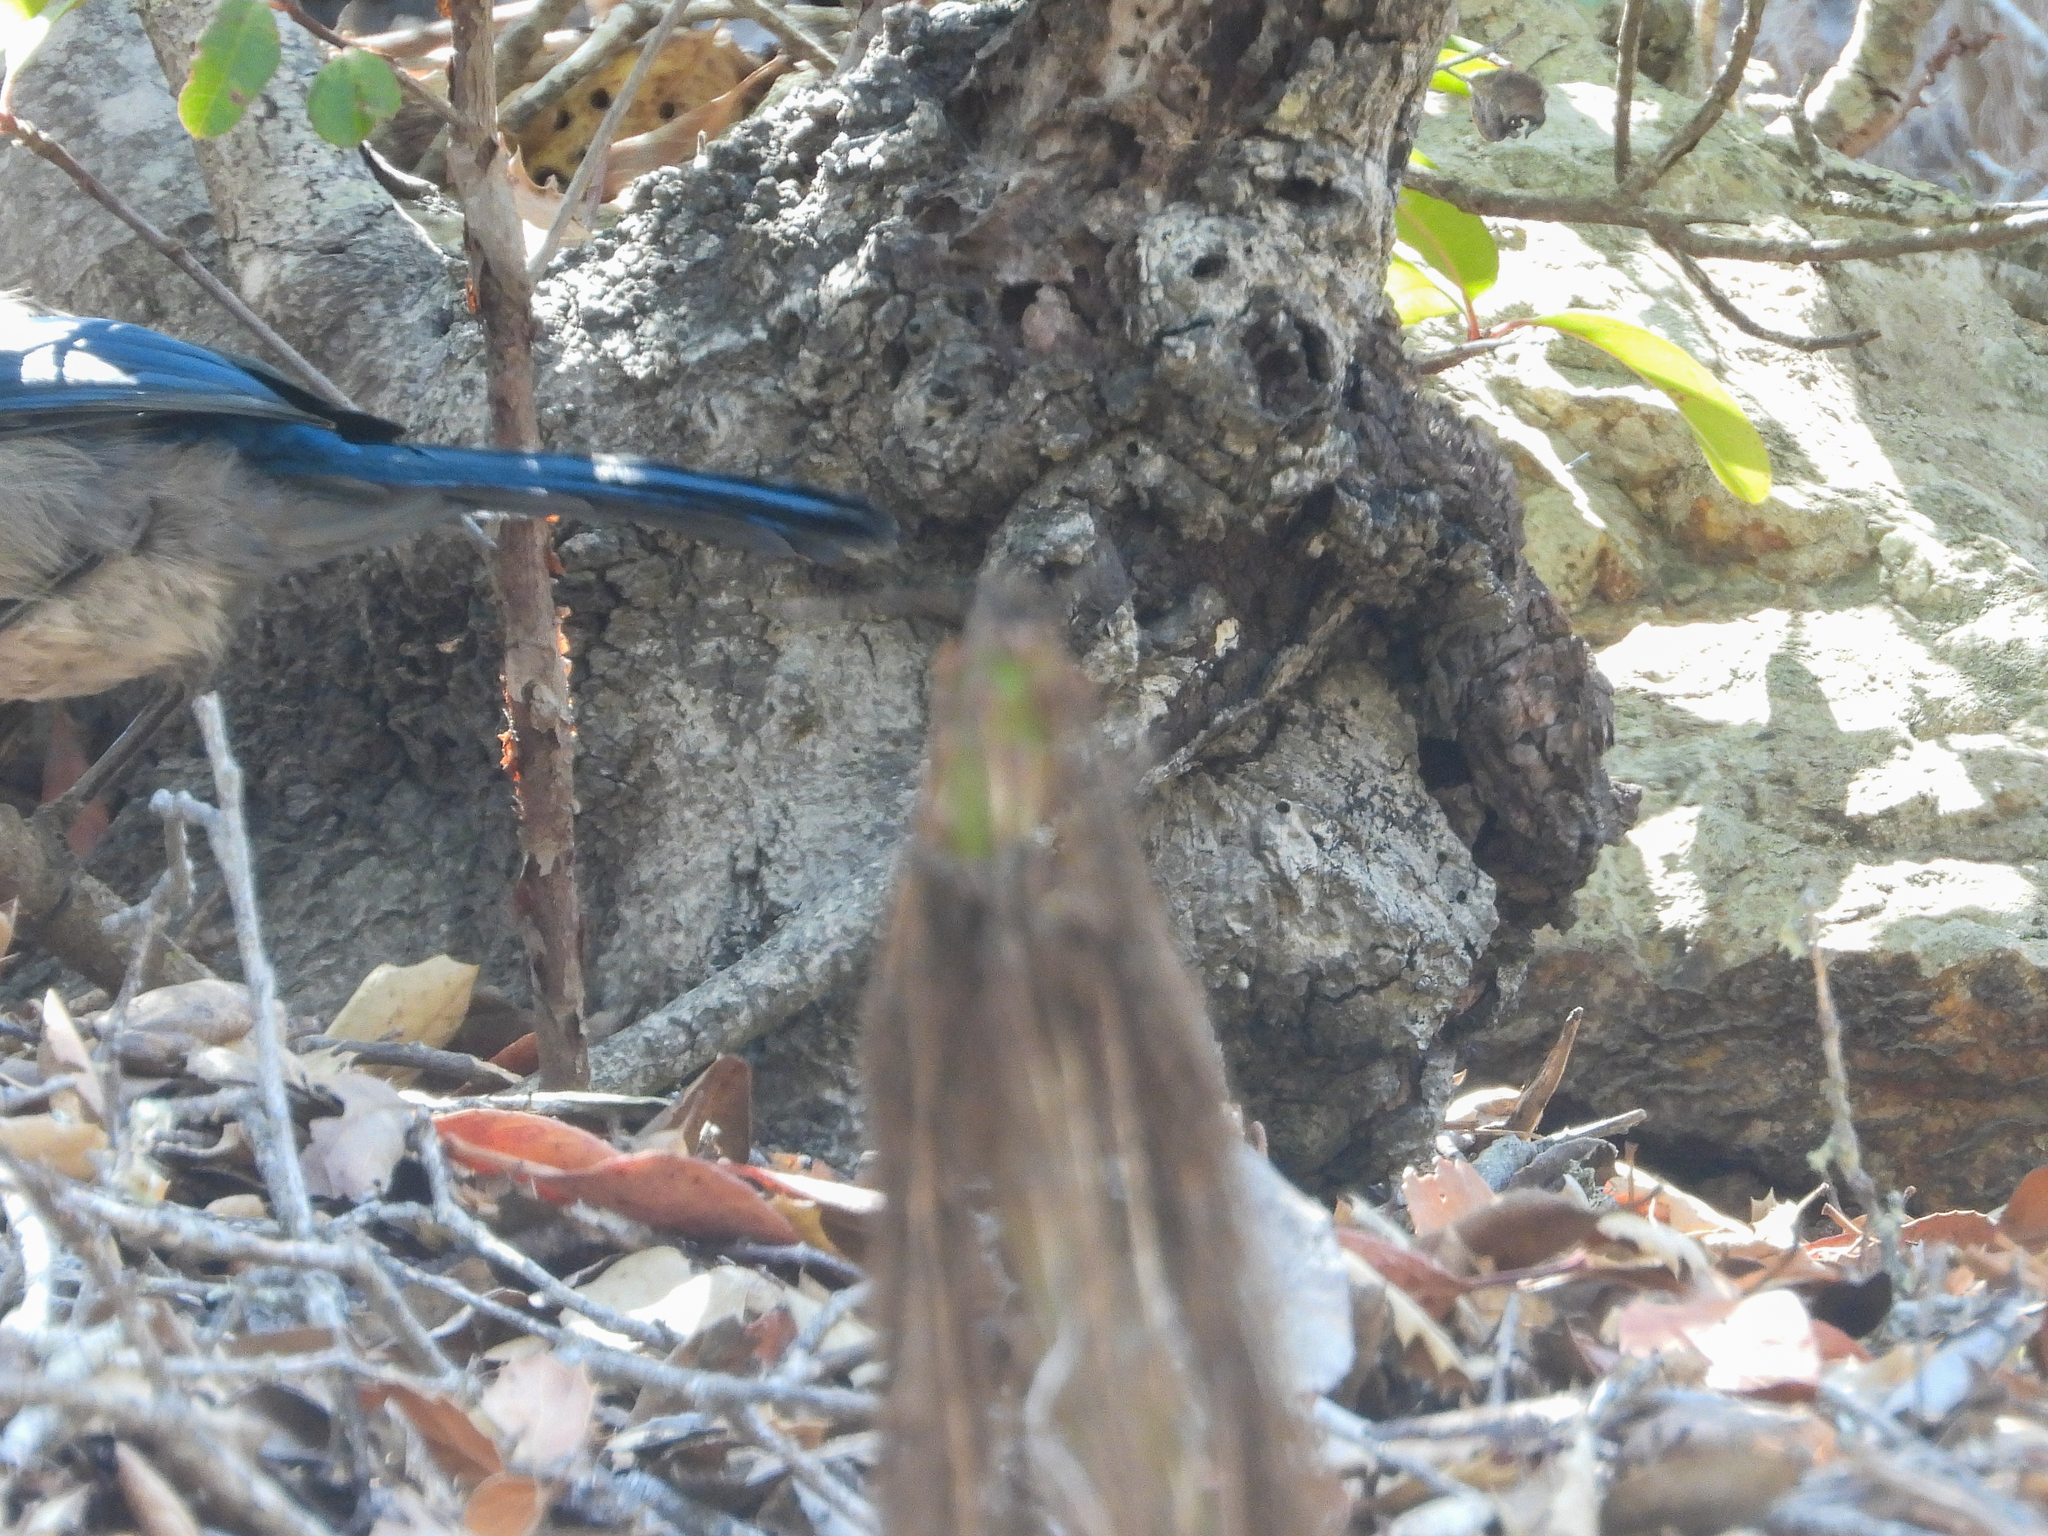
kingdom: Animalia
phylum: Chordata
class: Aves
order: Passeriformes
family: Corvidae
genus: Aphelocoma
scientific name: Aphelocoma insularis
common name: Island scrub-jay
